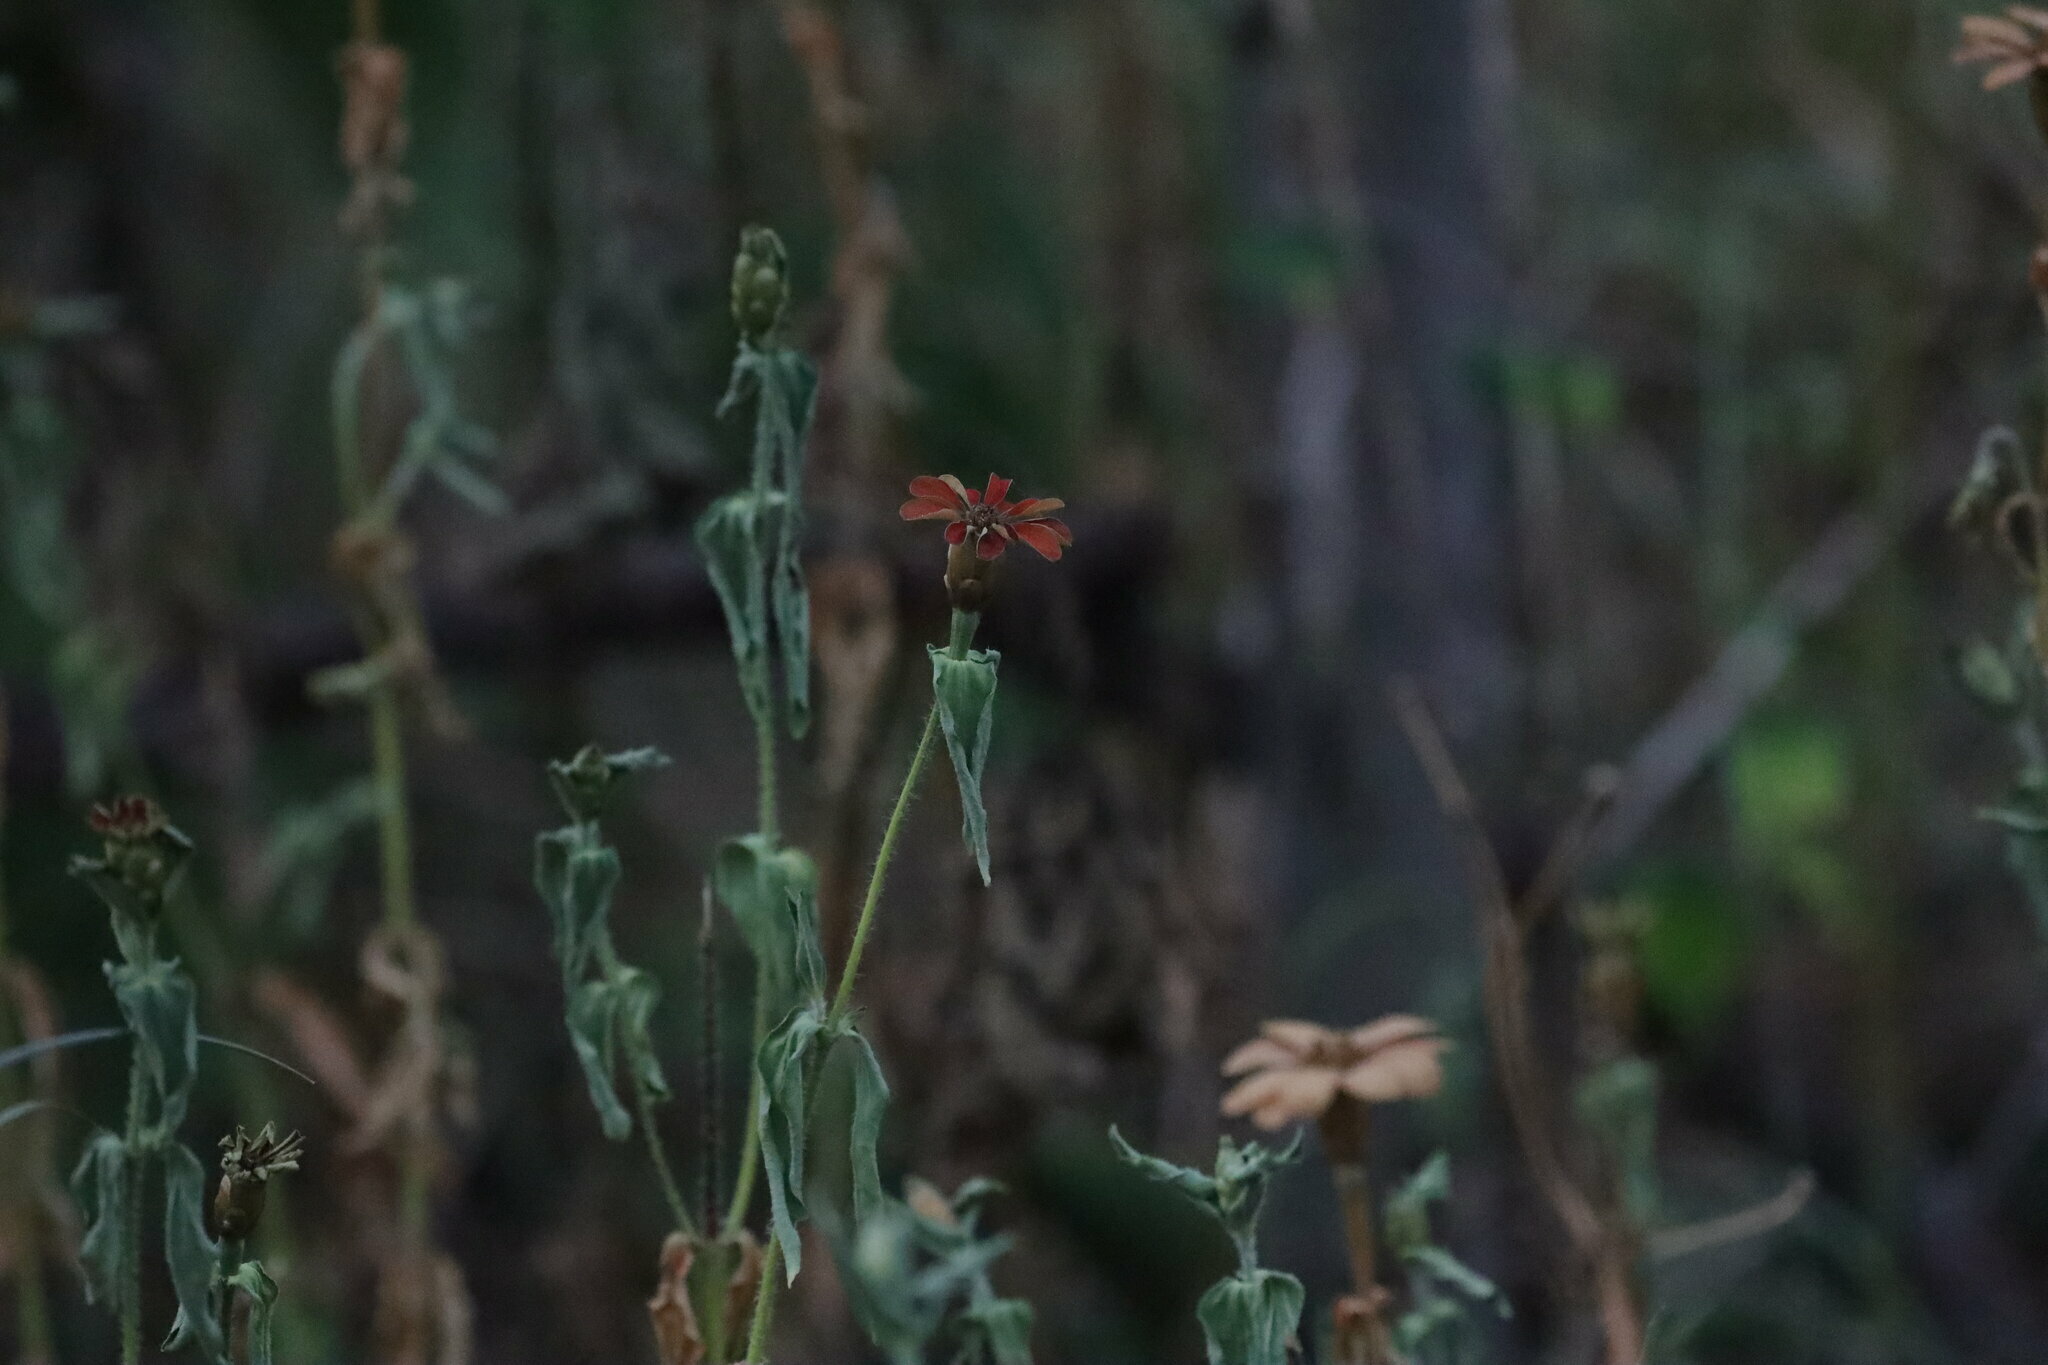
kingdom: Plantae
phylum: Tracheophyta
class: Magnoliopsida
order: Asterales
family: Asteraceae
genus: Zinnia
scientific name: Zinnia peruviana
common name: Peruvian zinnia
